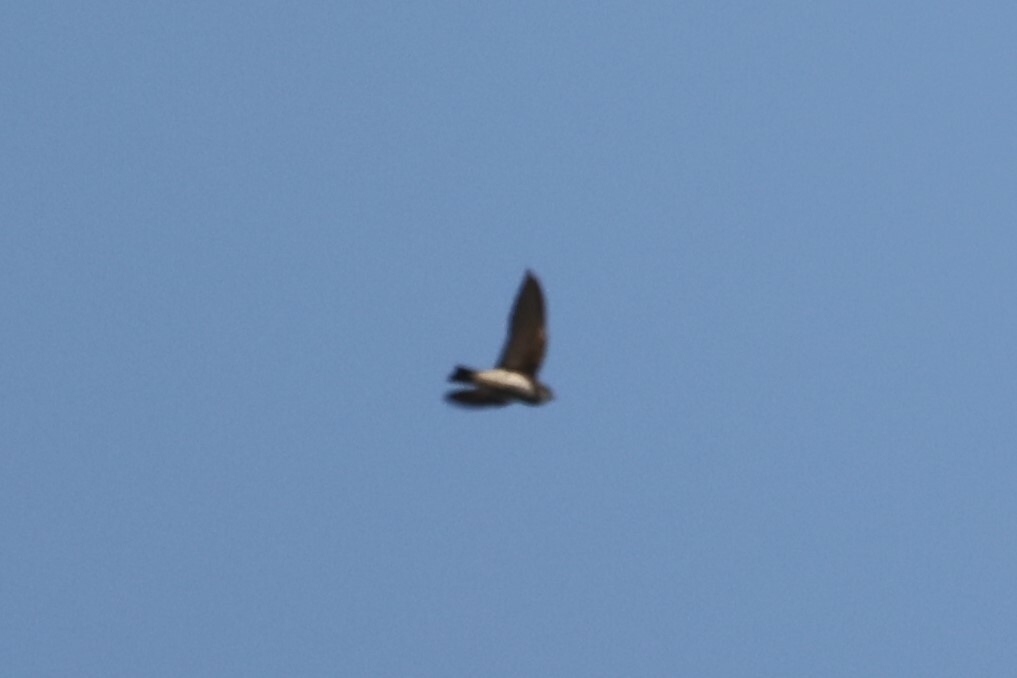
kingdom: Animalia
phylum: Chordata
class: Aves
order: Passeriformes
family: Hirundinidae
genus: Riparia
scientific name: Riparia riparia
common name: Sand martin
